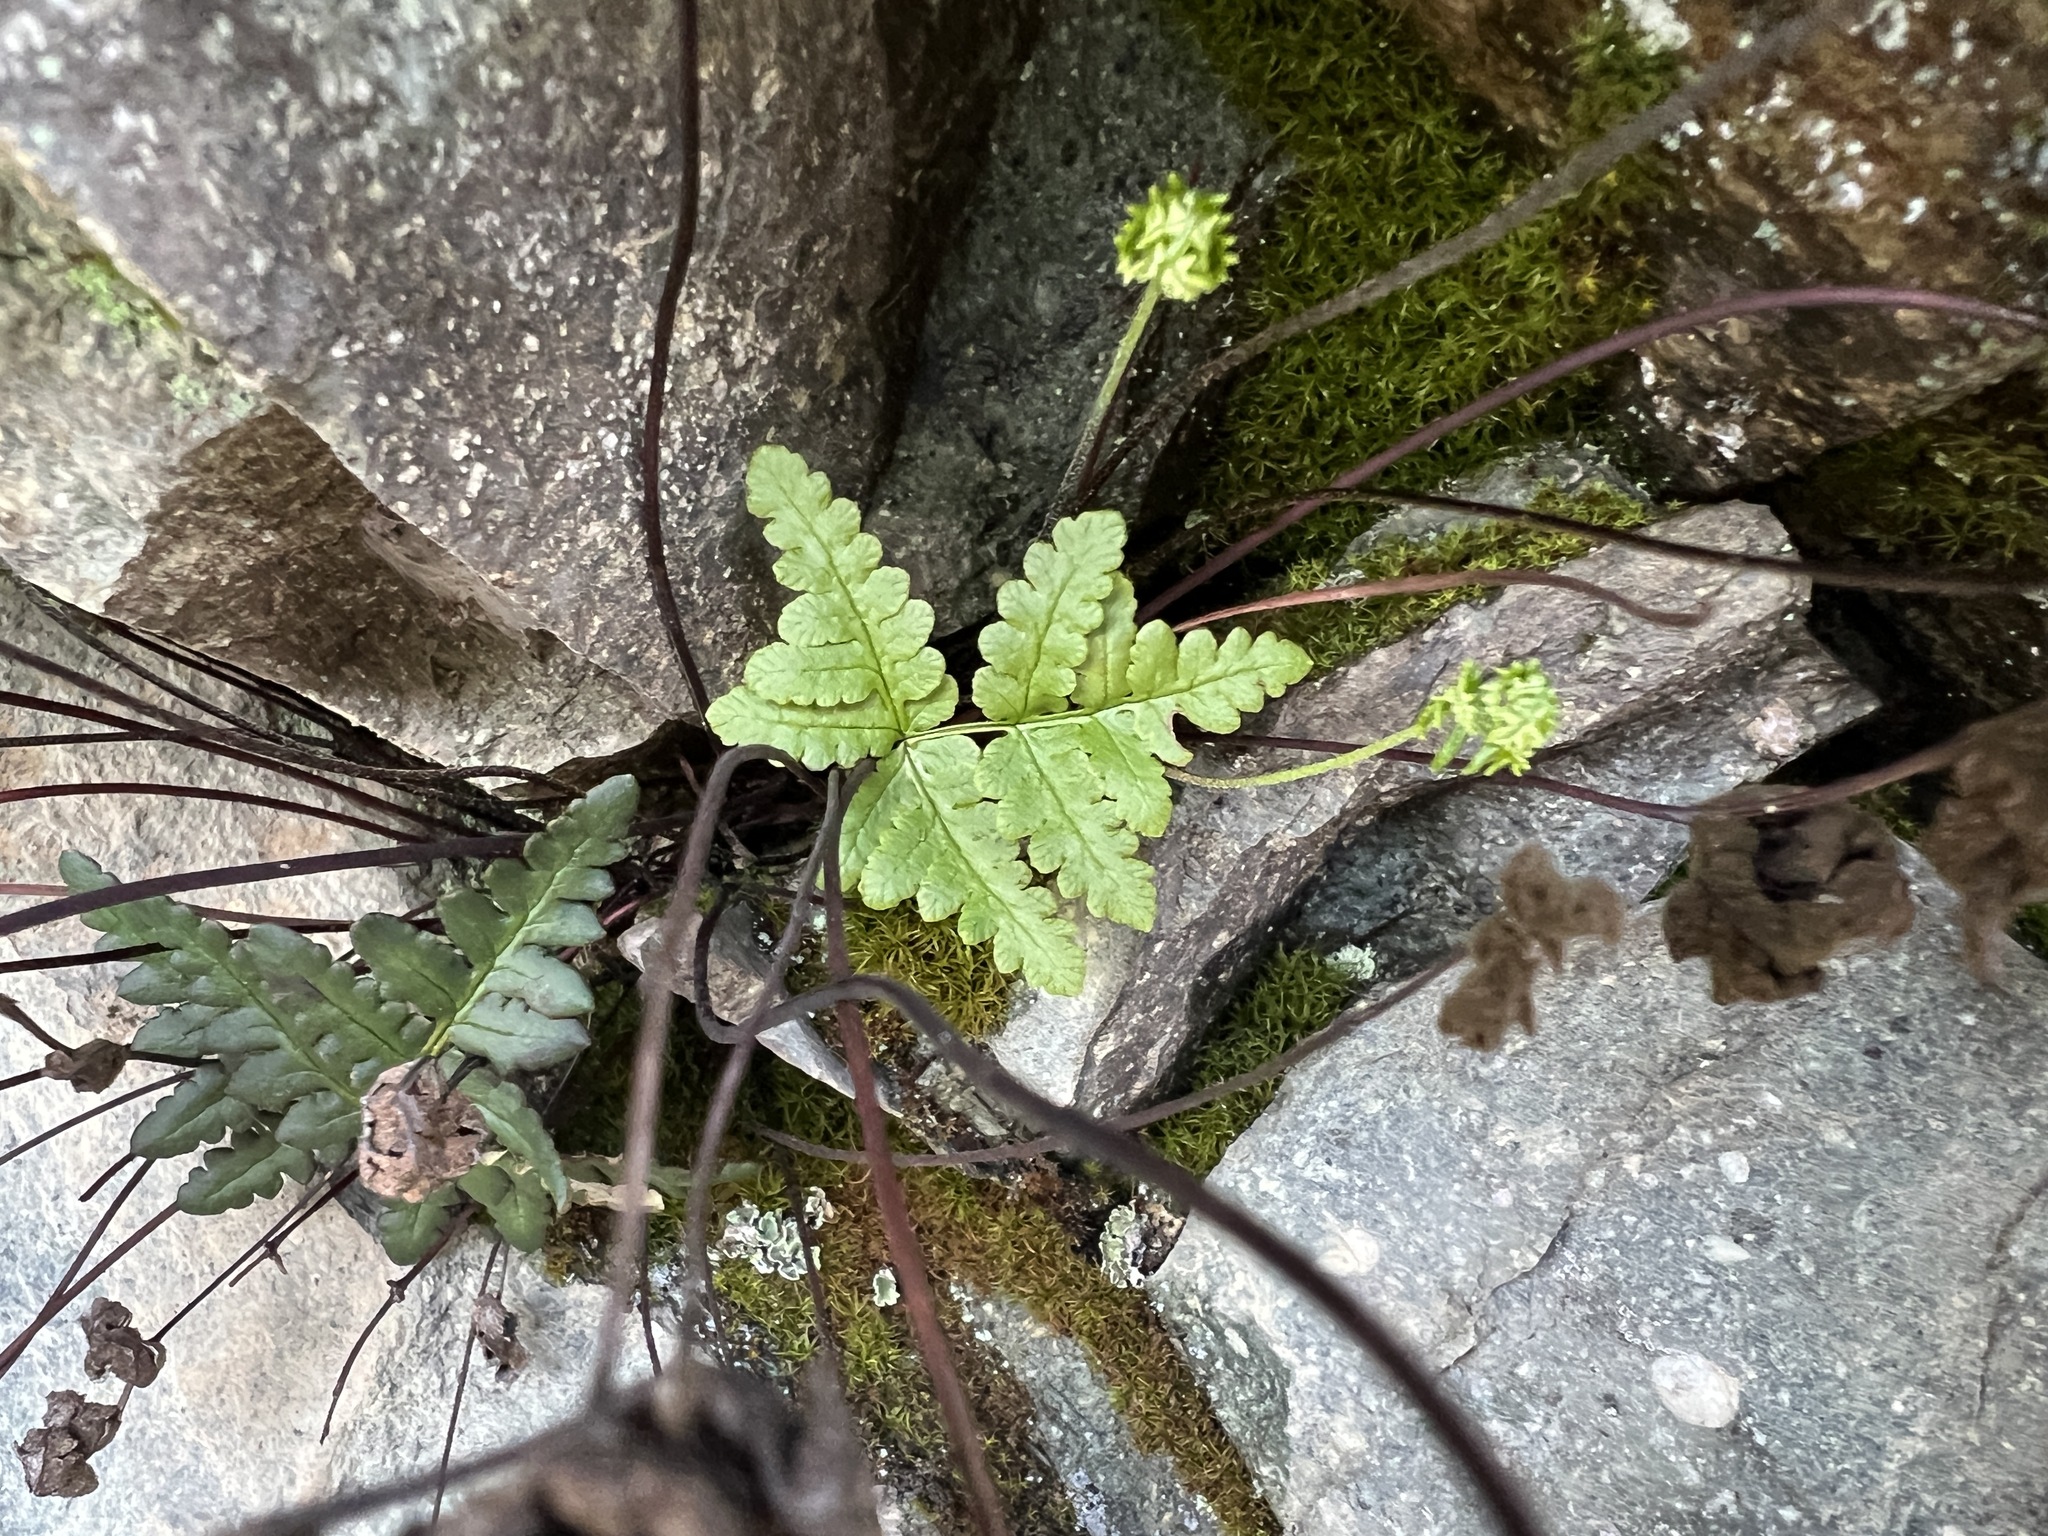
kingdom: Plantae
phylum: Tracheophyta
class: Polypodiopsida
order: Polypodiales
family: Pteridaceae
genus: Pentagramma
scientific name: Pentagramma triangularis
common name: Gold fern
